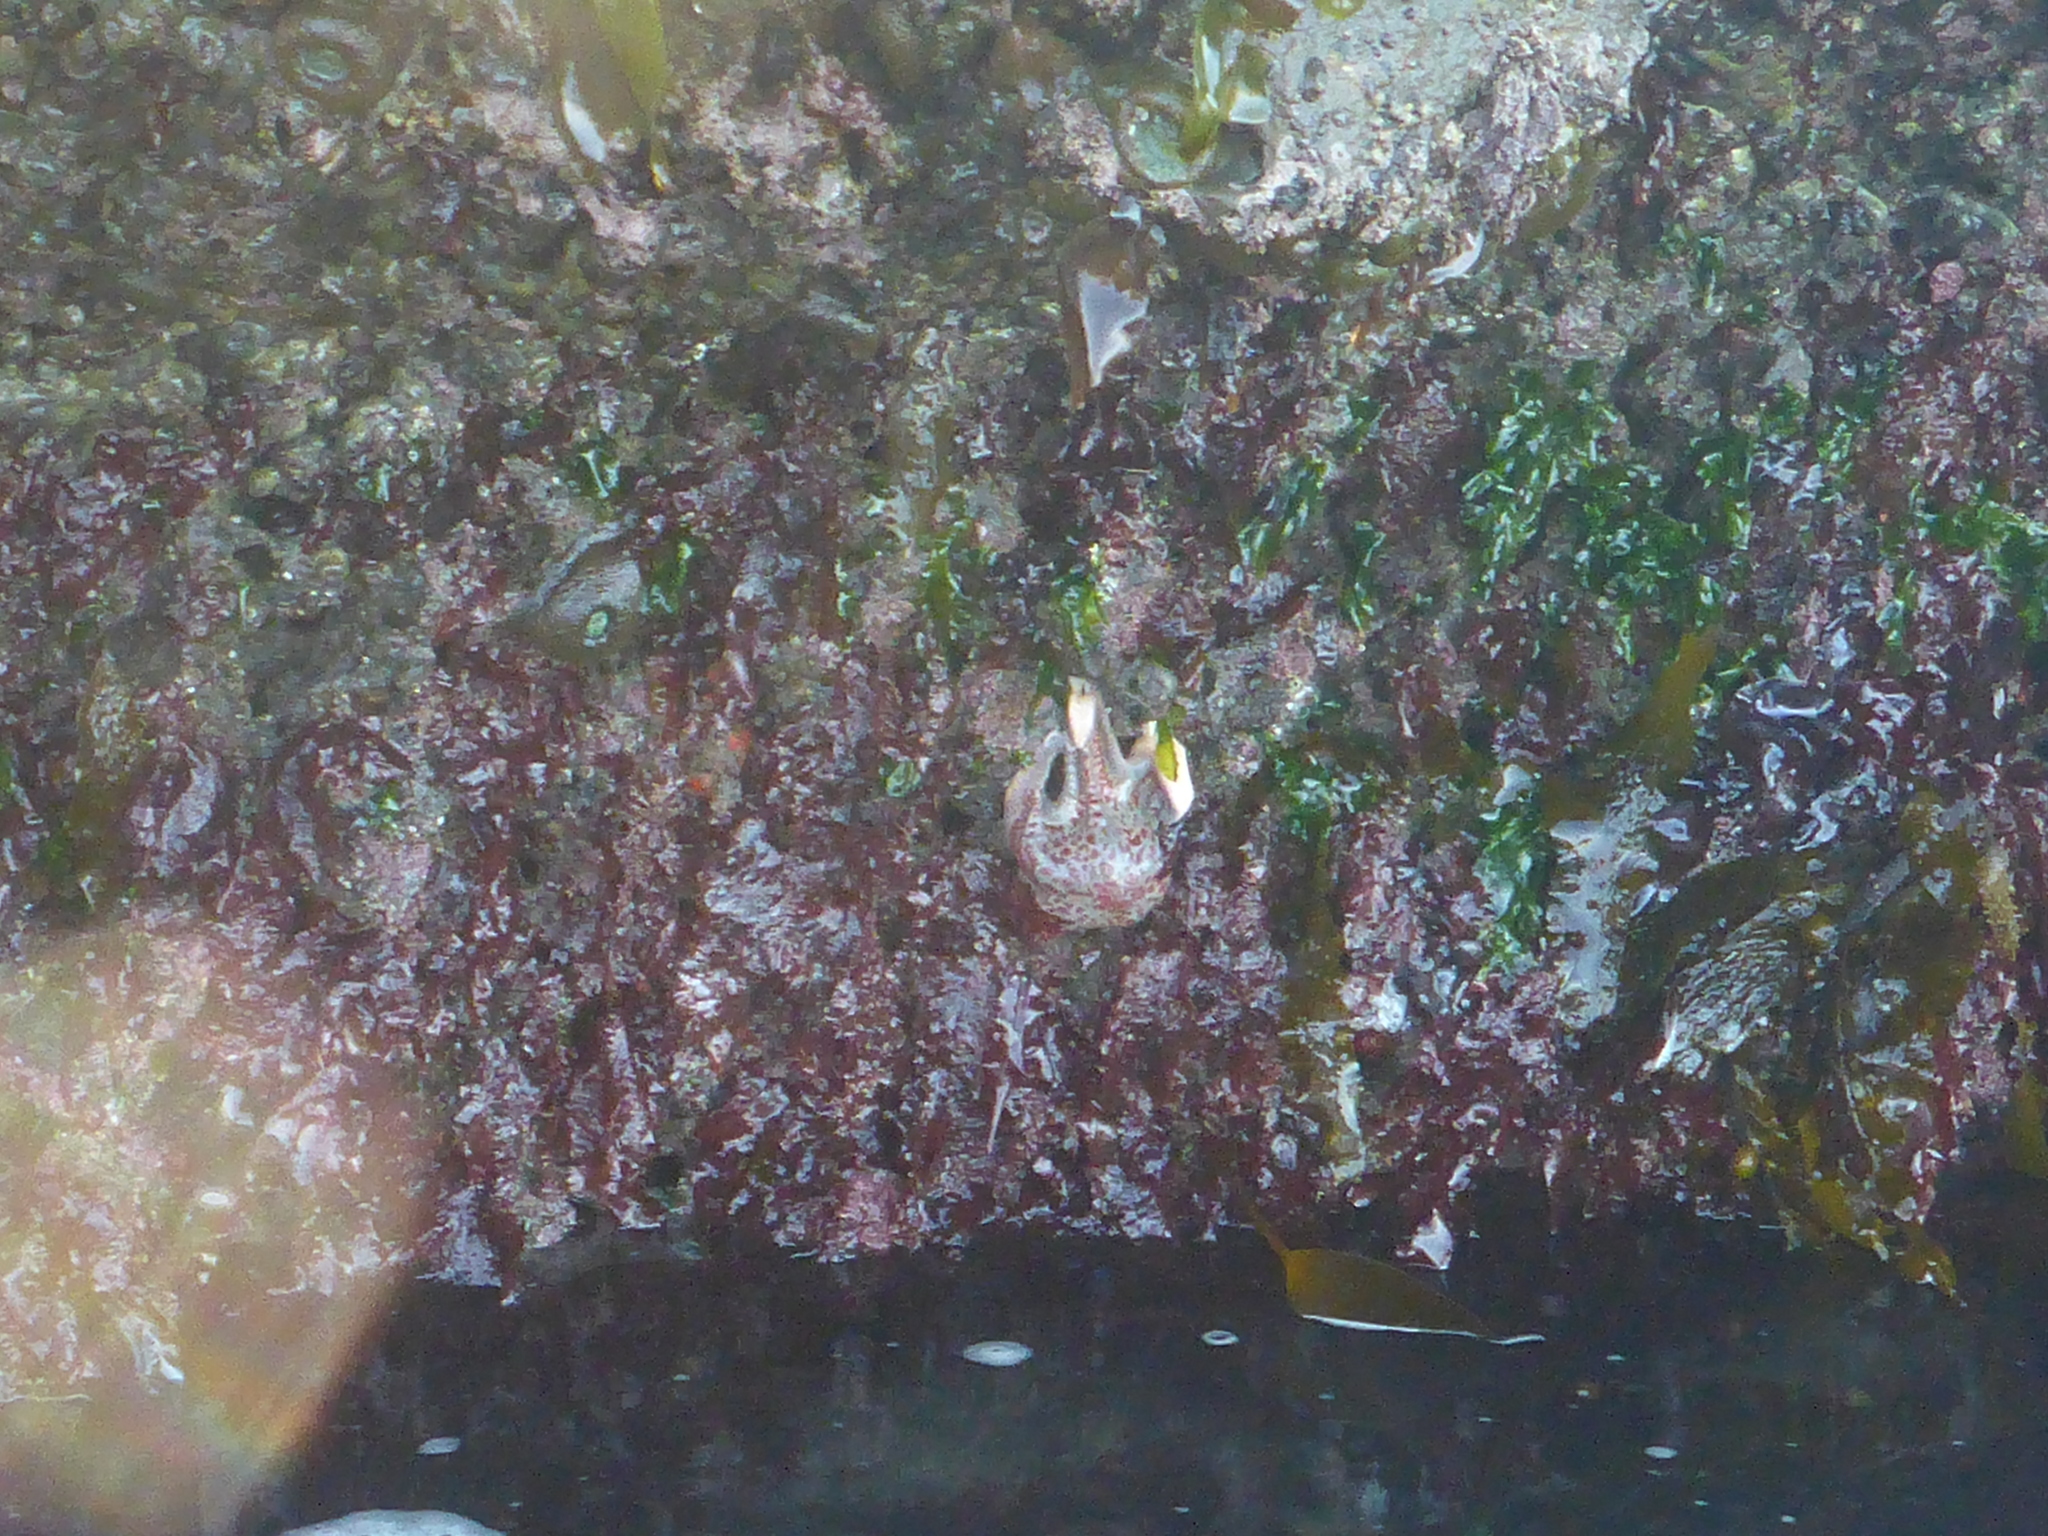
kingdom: Animalia
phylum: Echinodermata
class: Asteroidea
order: Valvatida
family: Asteropseidae
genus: Dermasterias
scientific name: Dermasterias imbricata
